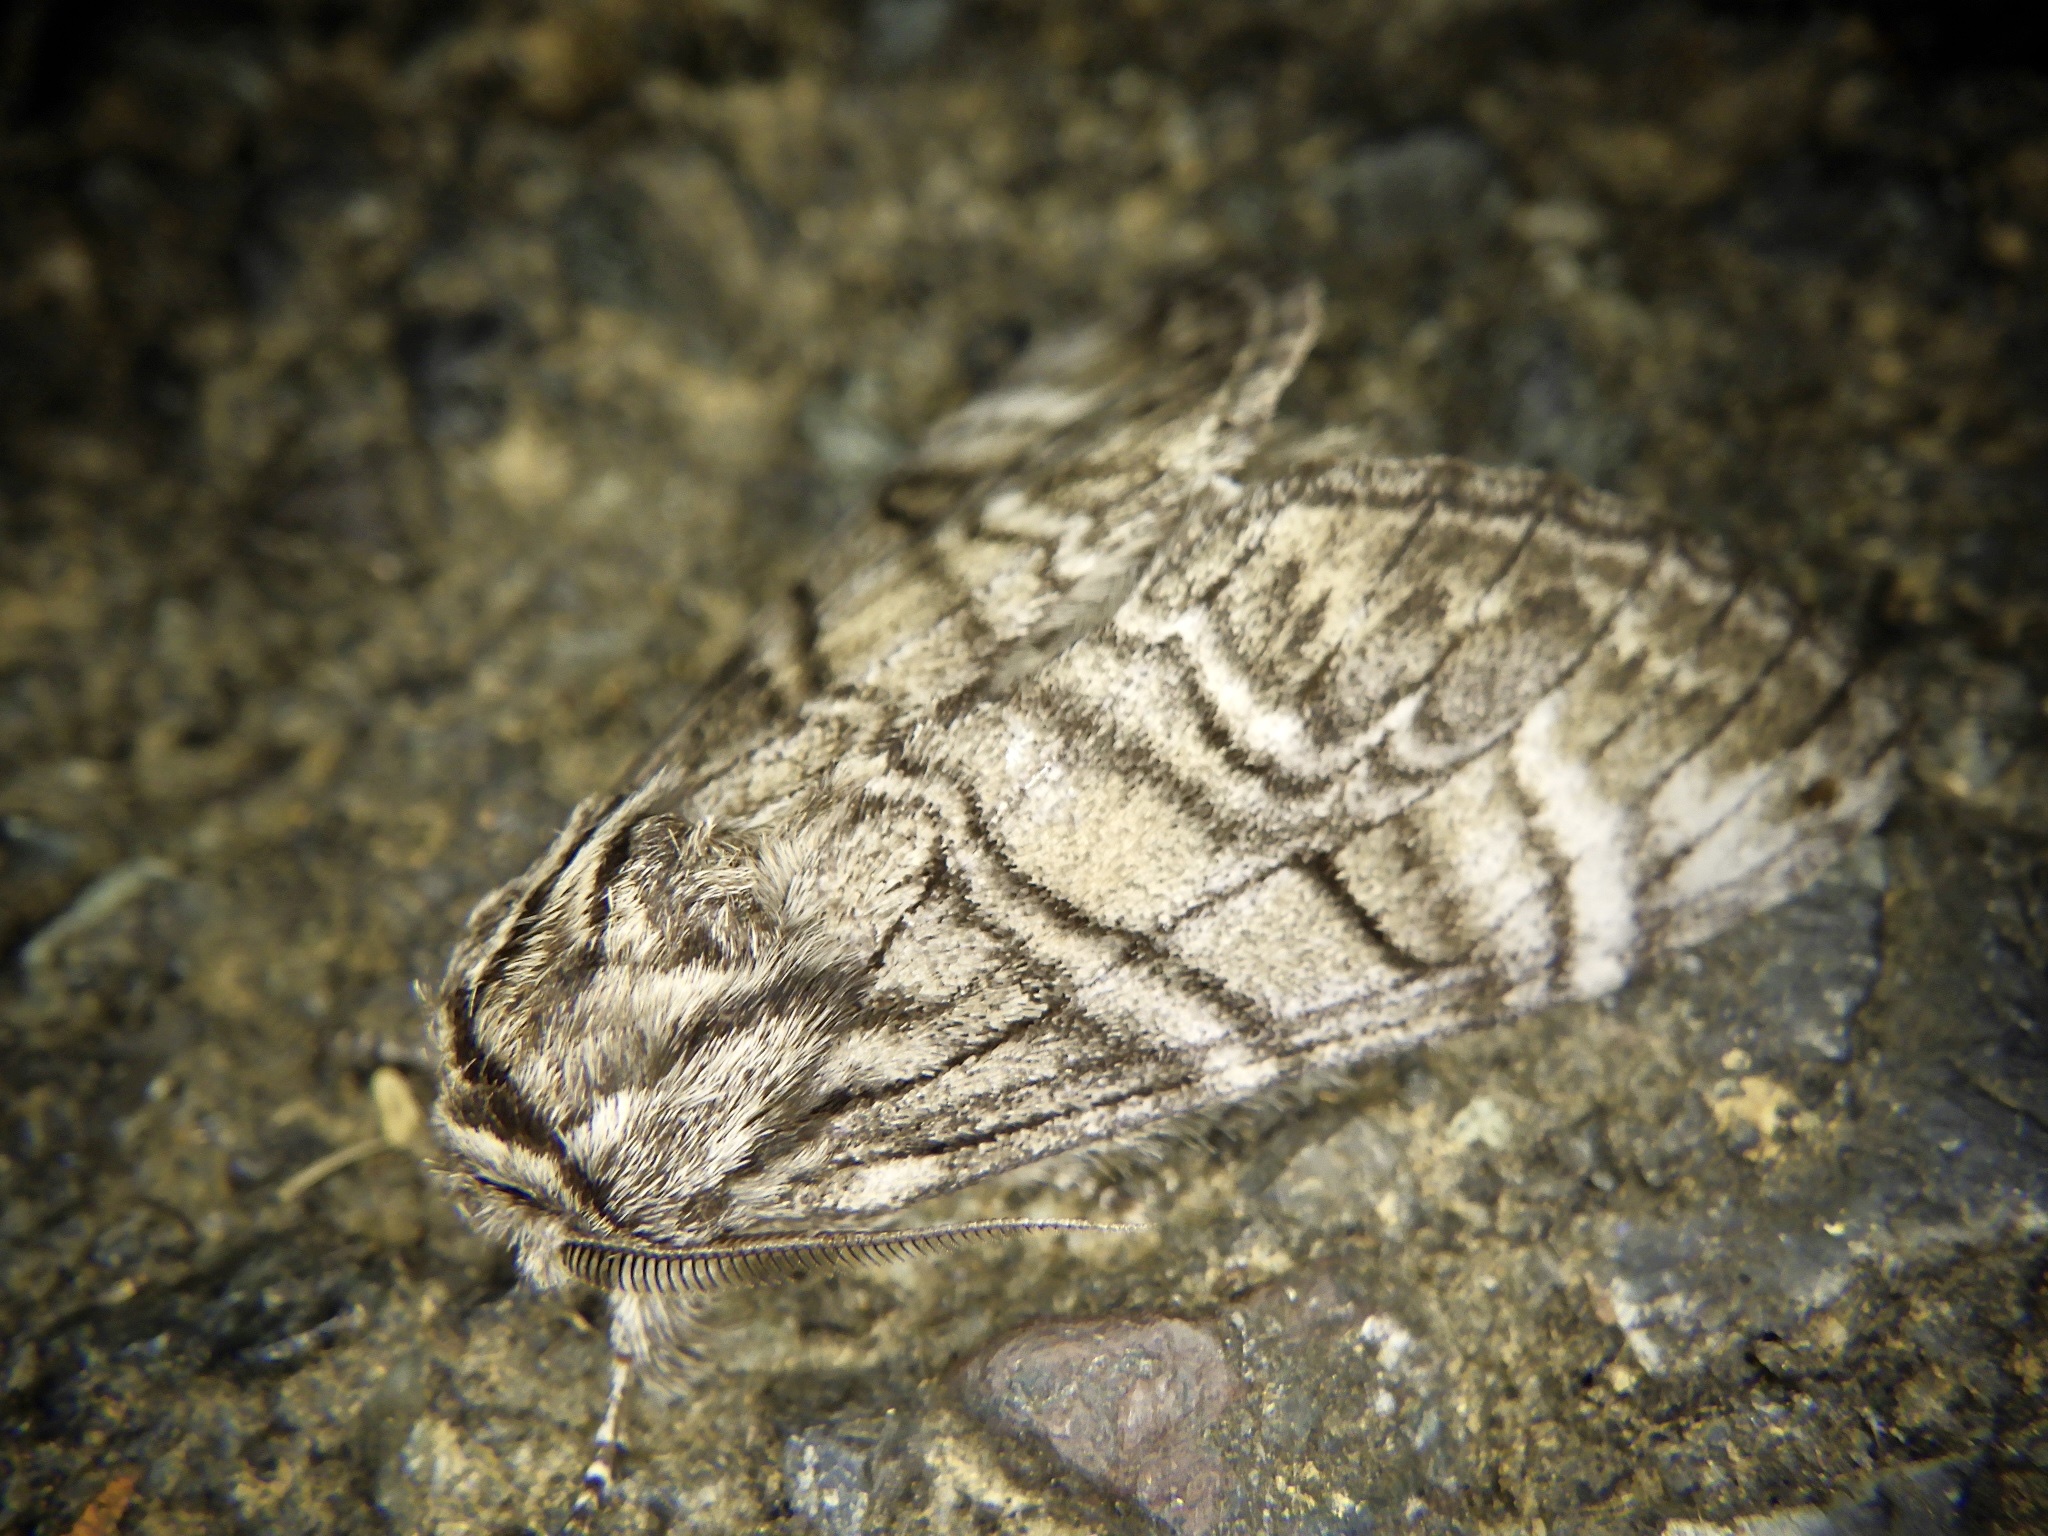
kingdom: Animalia
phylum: Arthropoda
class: Insecta
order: Lepidoptera
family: Notodontidae
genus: Epodonta
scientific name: Epodonta lineata
